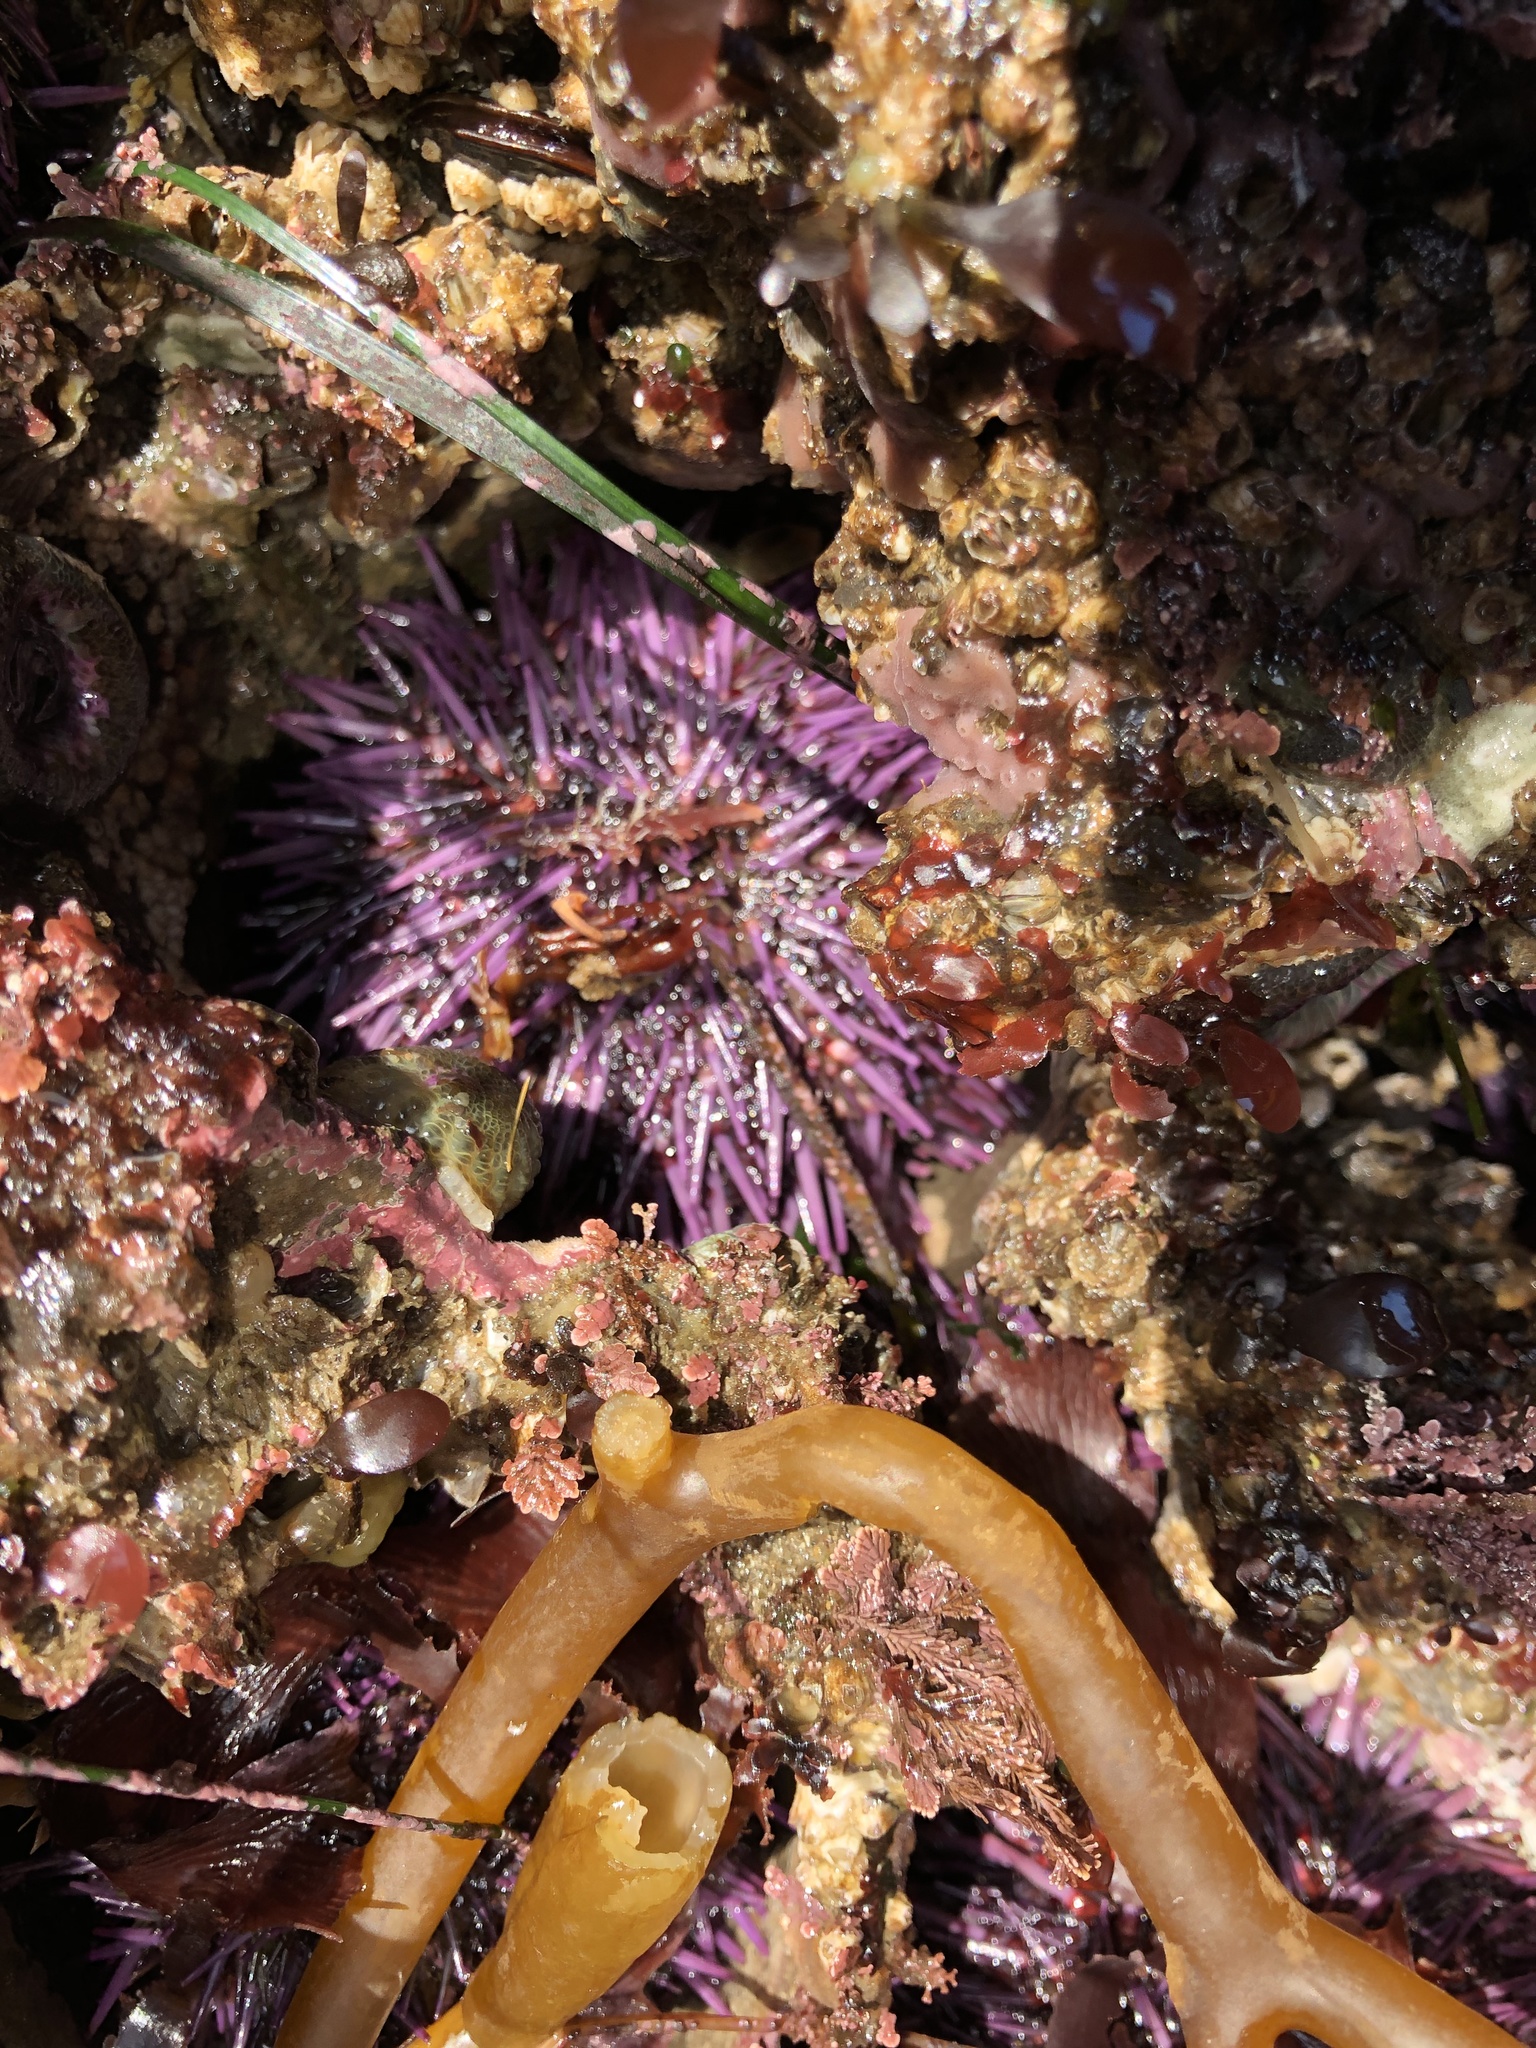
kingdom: Animalia
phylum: Echinodermata
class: Echinoidea
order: Camarodonta
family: Strongylocentrotidae
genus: Strongylocentrotus
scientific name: Strongylocentrotus purpuratus
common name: Purple sea urchin
